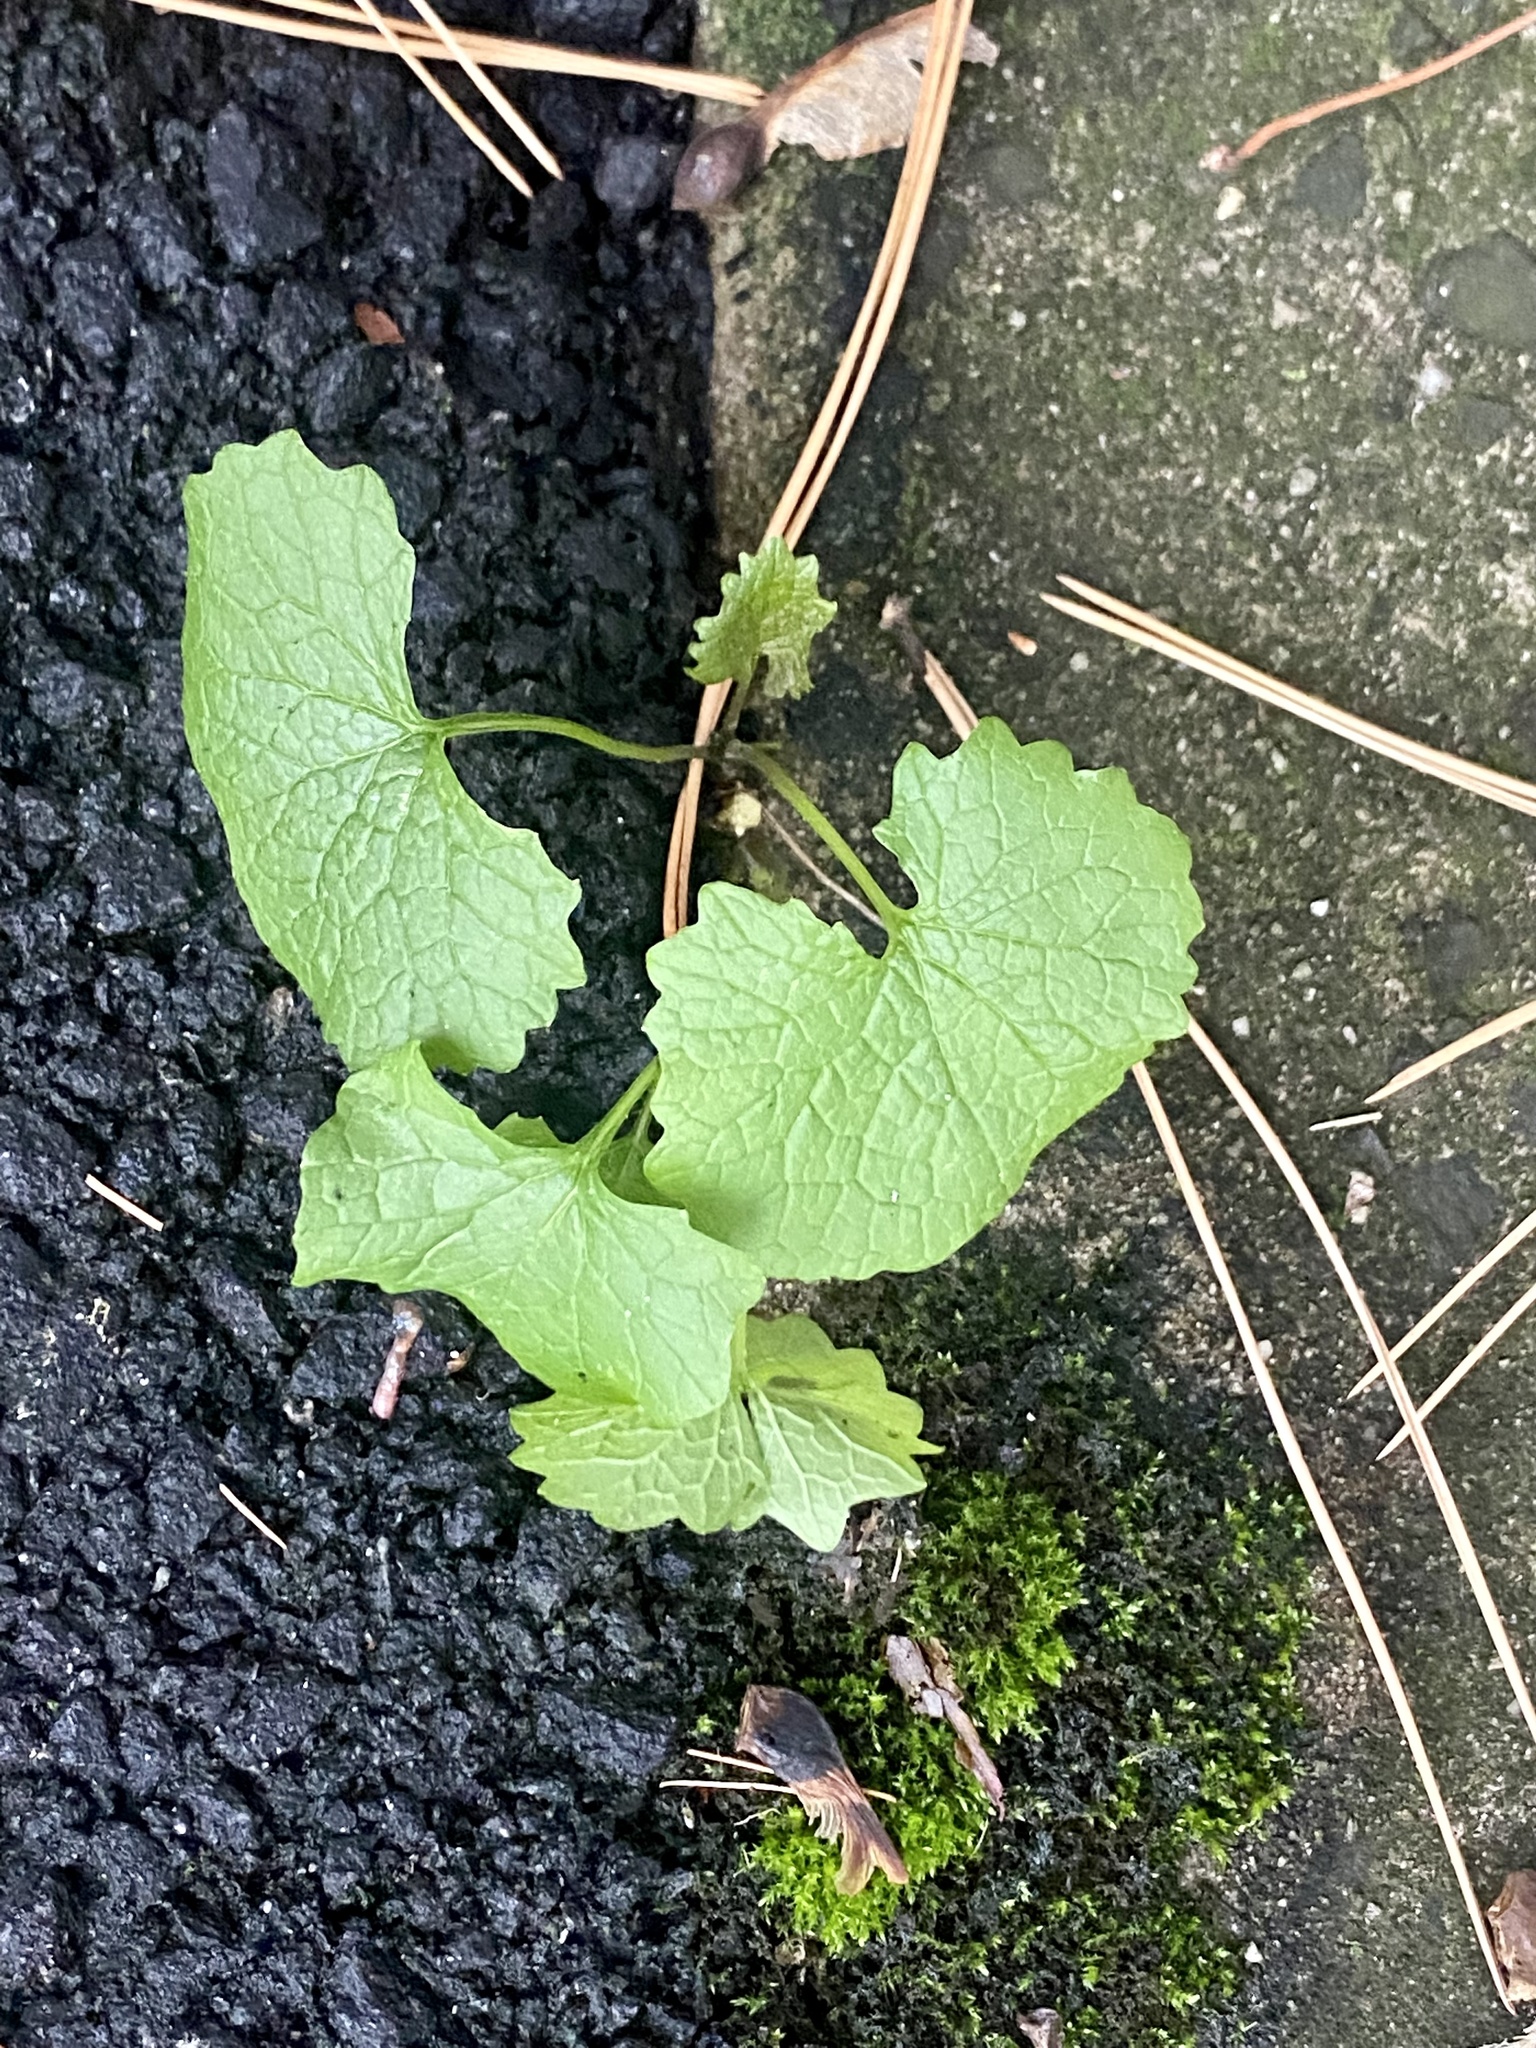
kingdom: Plantae
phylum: Tracheophyta
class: Magnoliopsida
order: Brassicales
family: Brassicaceae
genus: Alliaria
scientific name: Alliaria petiolata
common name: Garlic mustard
